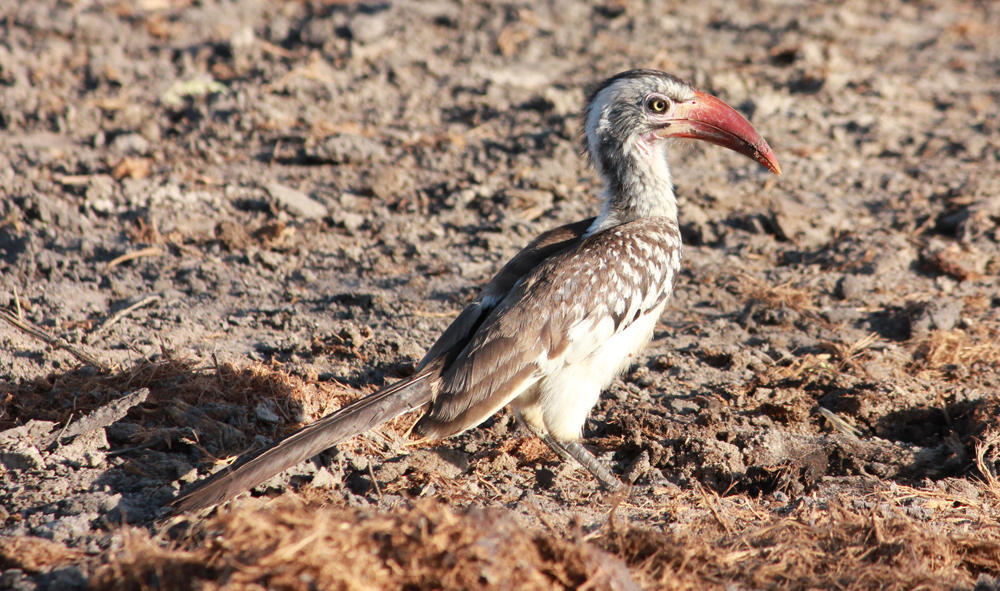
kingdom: Animalia
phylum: Chordata
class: Aves
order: Bucerotiformes
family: Bucerotidae
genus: Tockus
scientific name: Tockus rufirostris
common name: Southern red-billed hornbill
